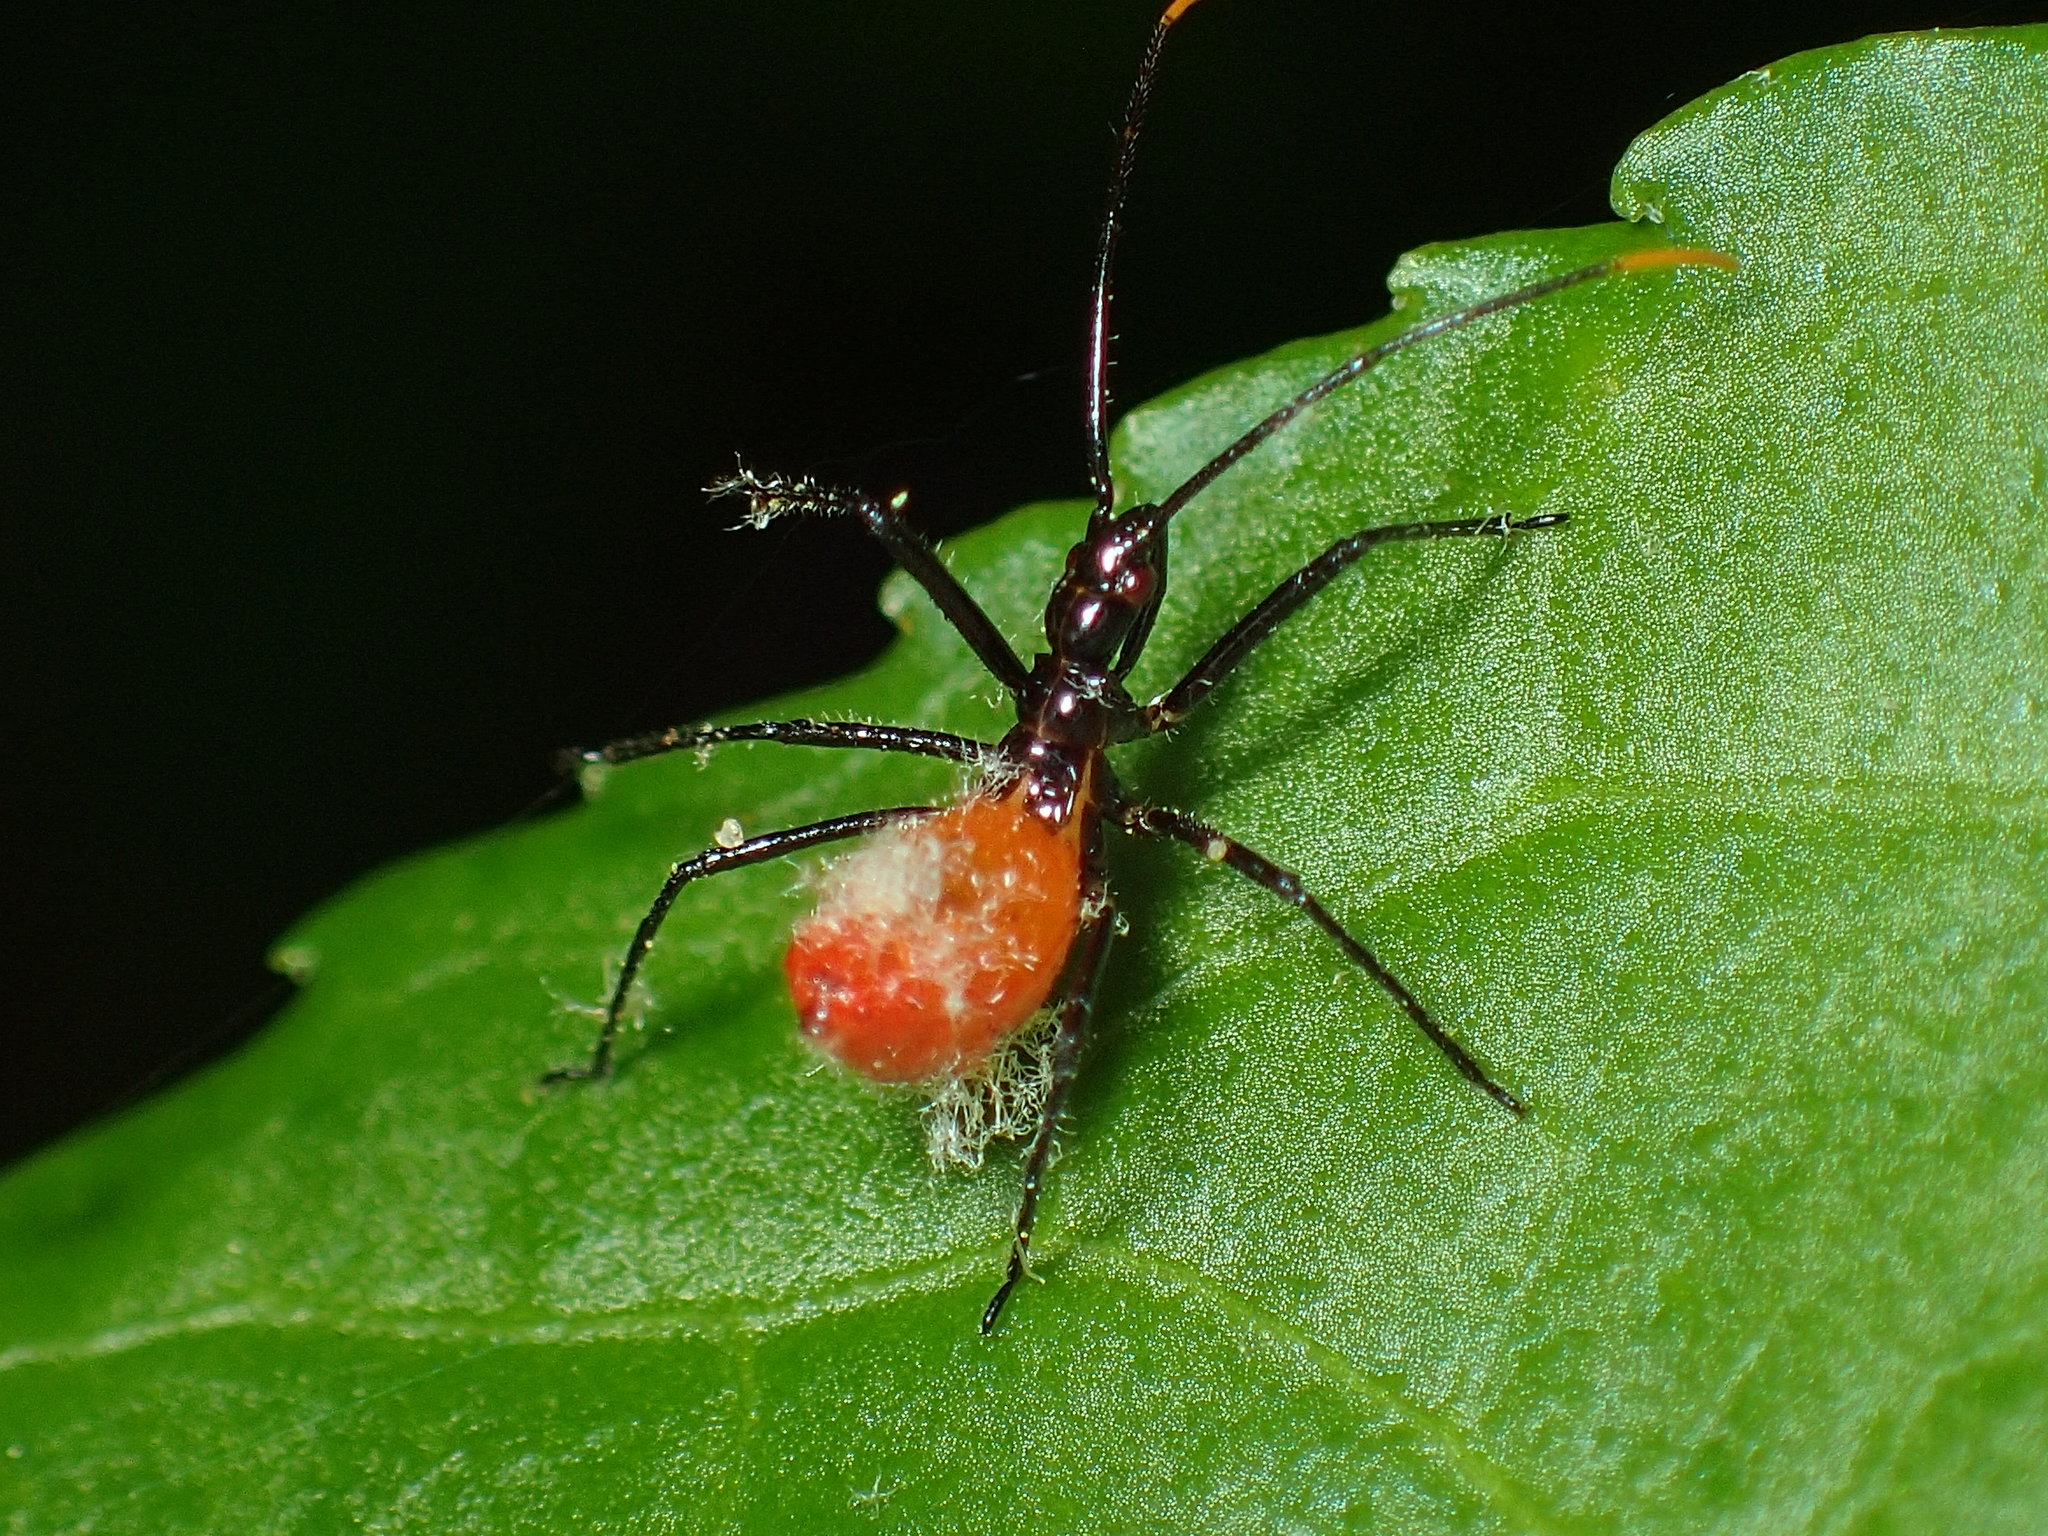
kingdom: Animalia
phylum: Arthropoda
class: Insecta
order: Hemiptera
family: Reduviidae
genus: Arilus
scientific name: Arilus cristatus
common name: North american wheel bug
